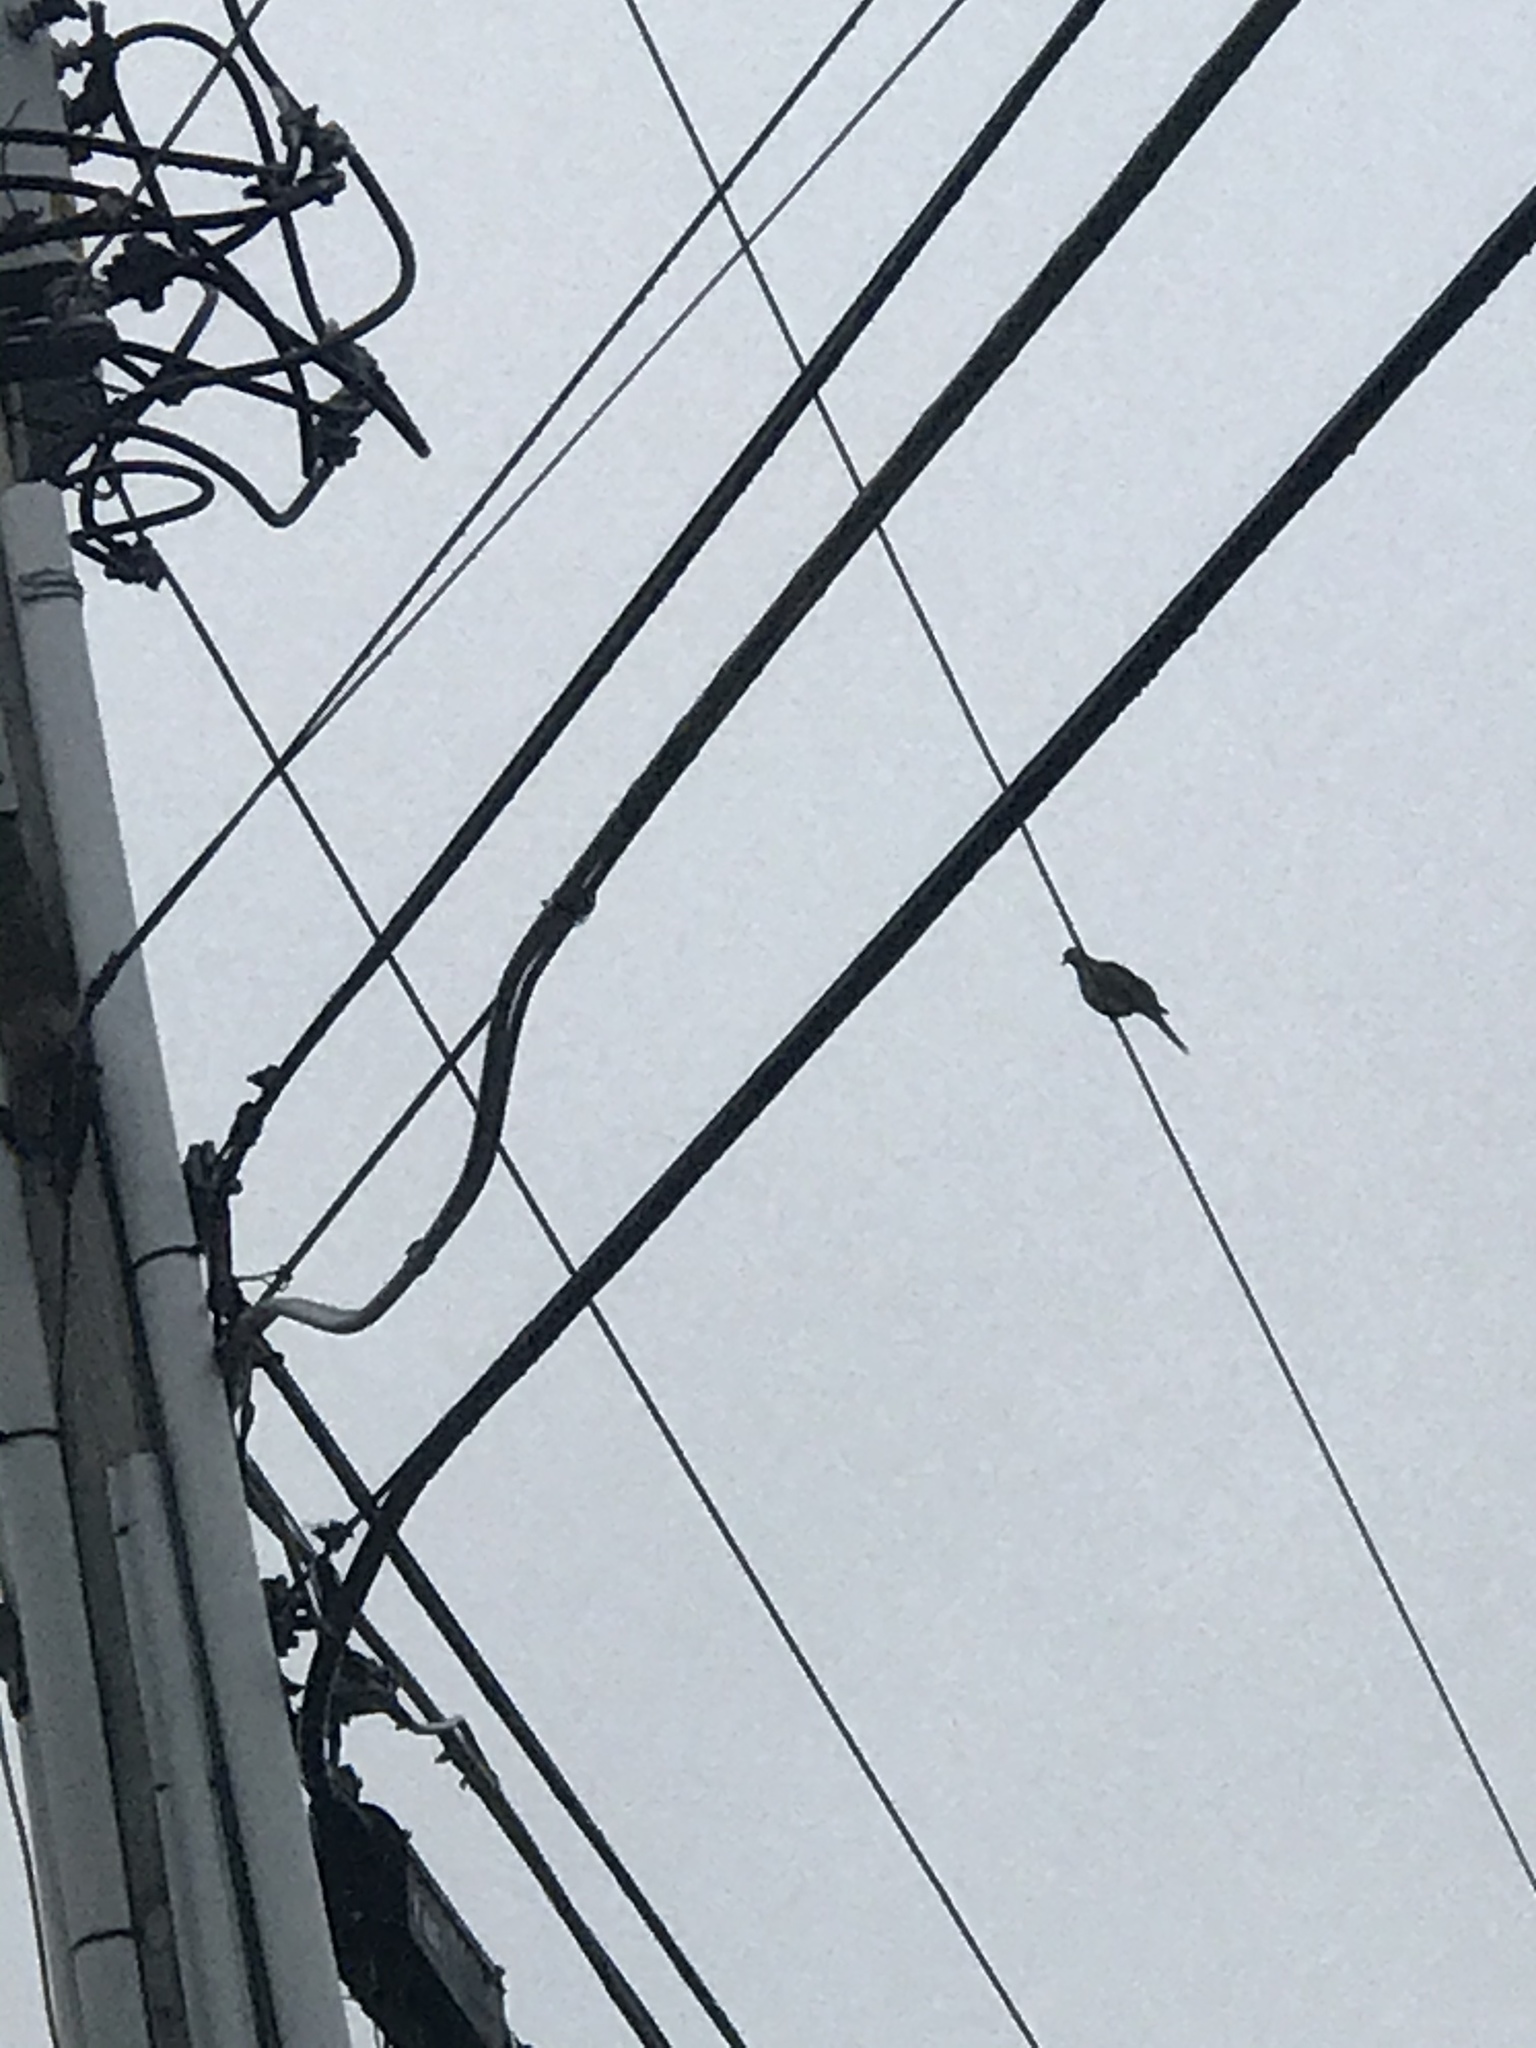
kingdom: Animalia
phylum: Chordata
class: Aves
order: Columbiformes
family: Columbidae
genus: Zenaida
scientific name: Zenaida macroura
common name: Mourning dove
